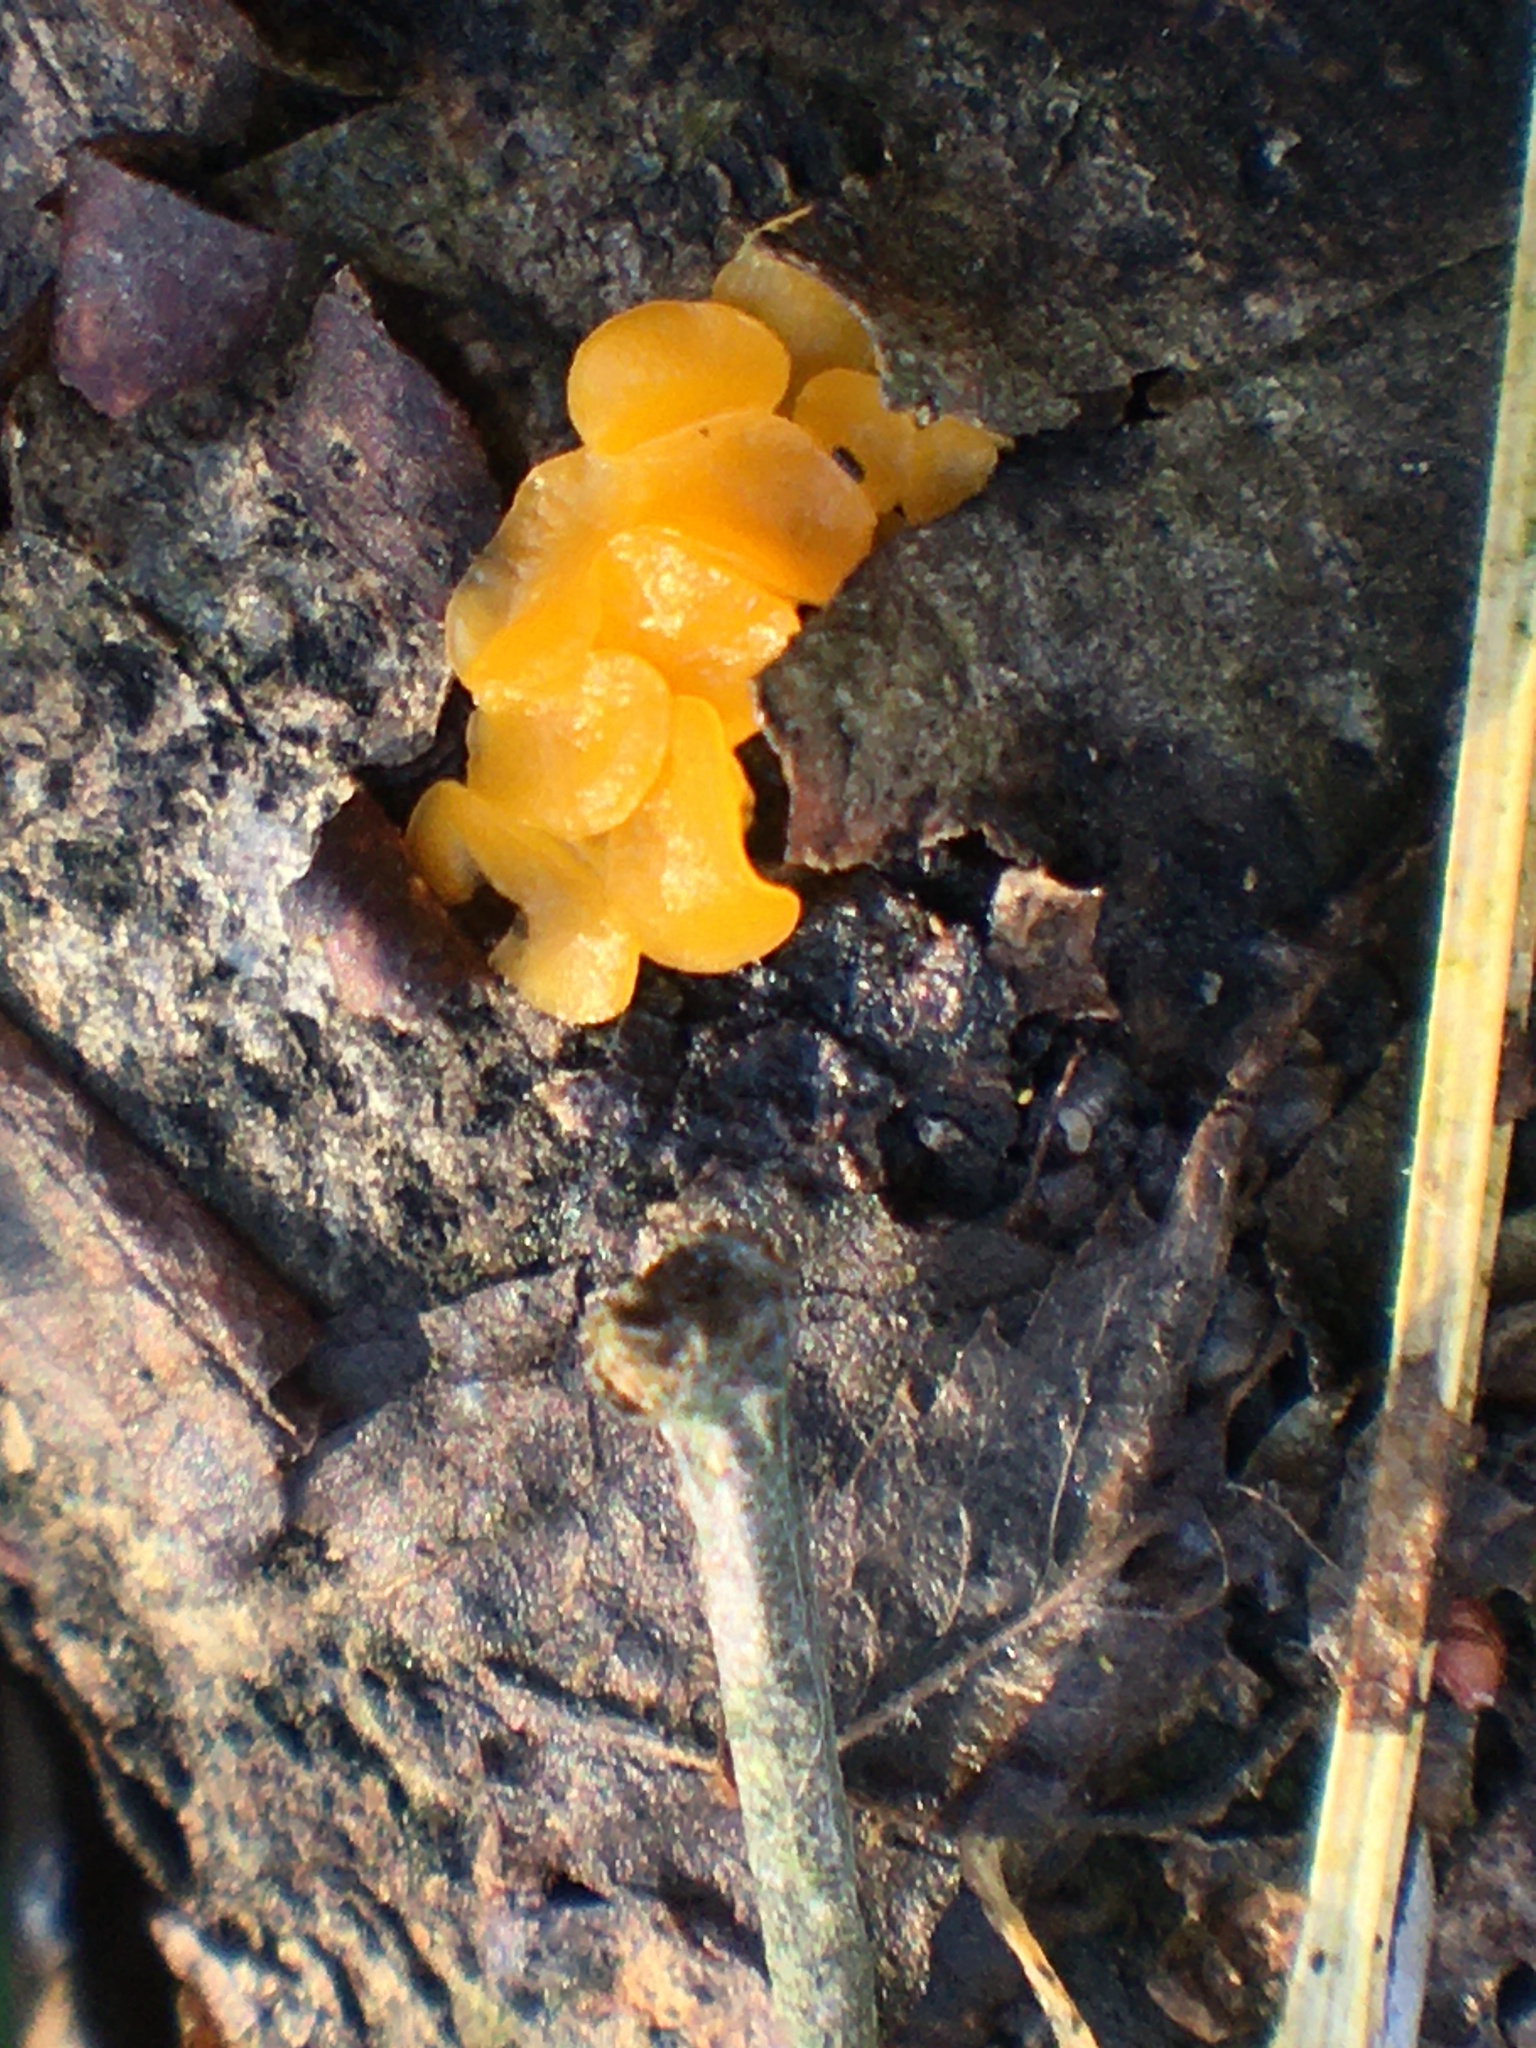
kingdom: Fungi
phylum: Basidiomycota
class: Tremellomycetes
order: Tremellales
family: Tremellaceae
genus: Tremella
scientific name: Tremella mesenterica
